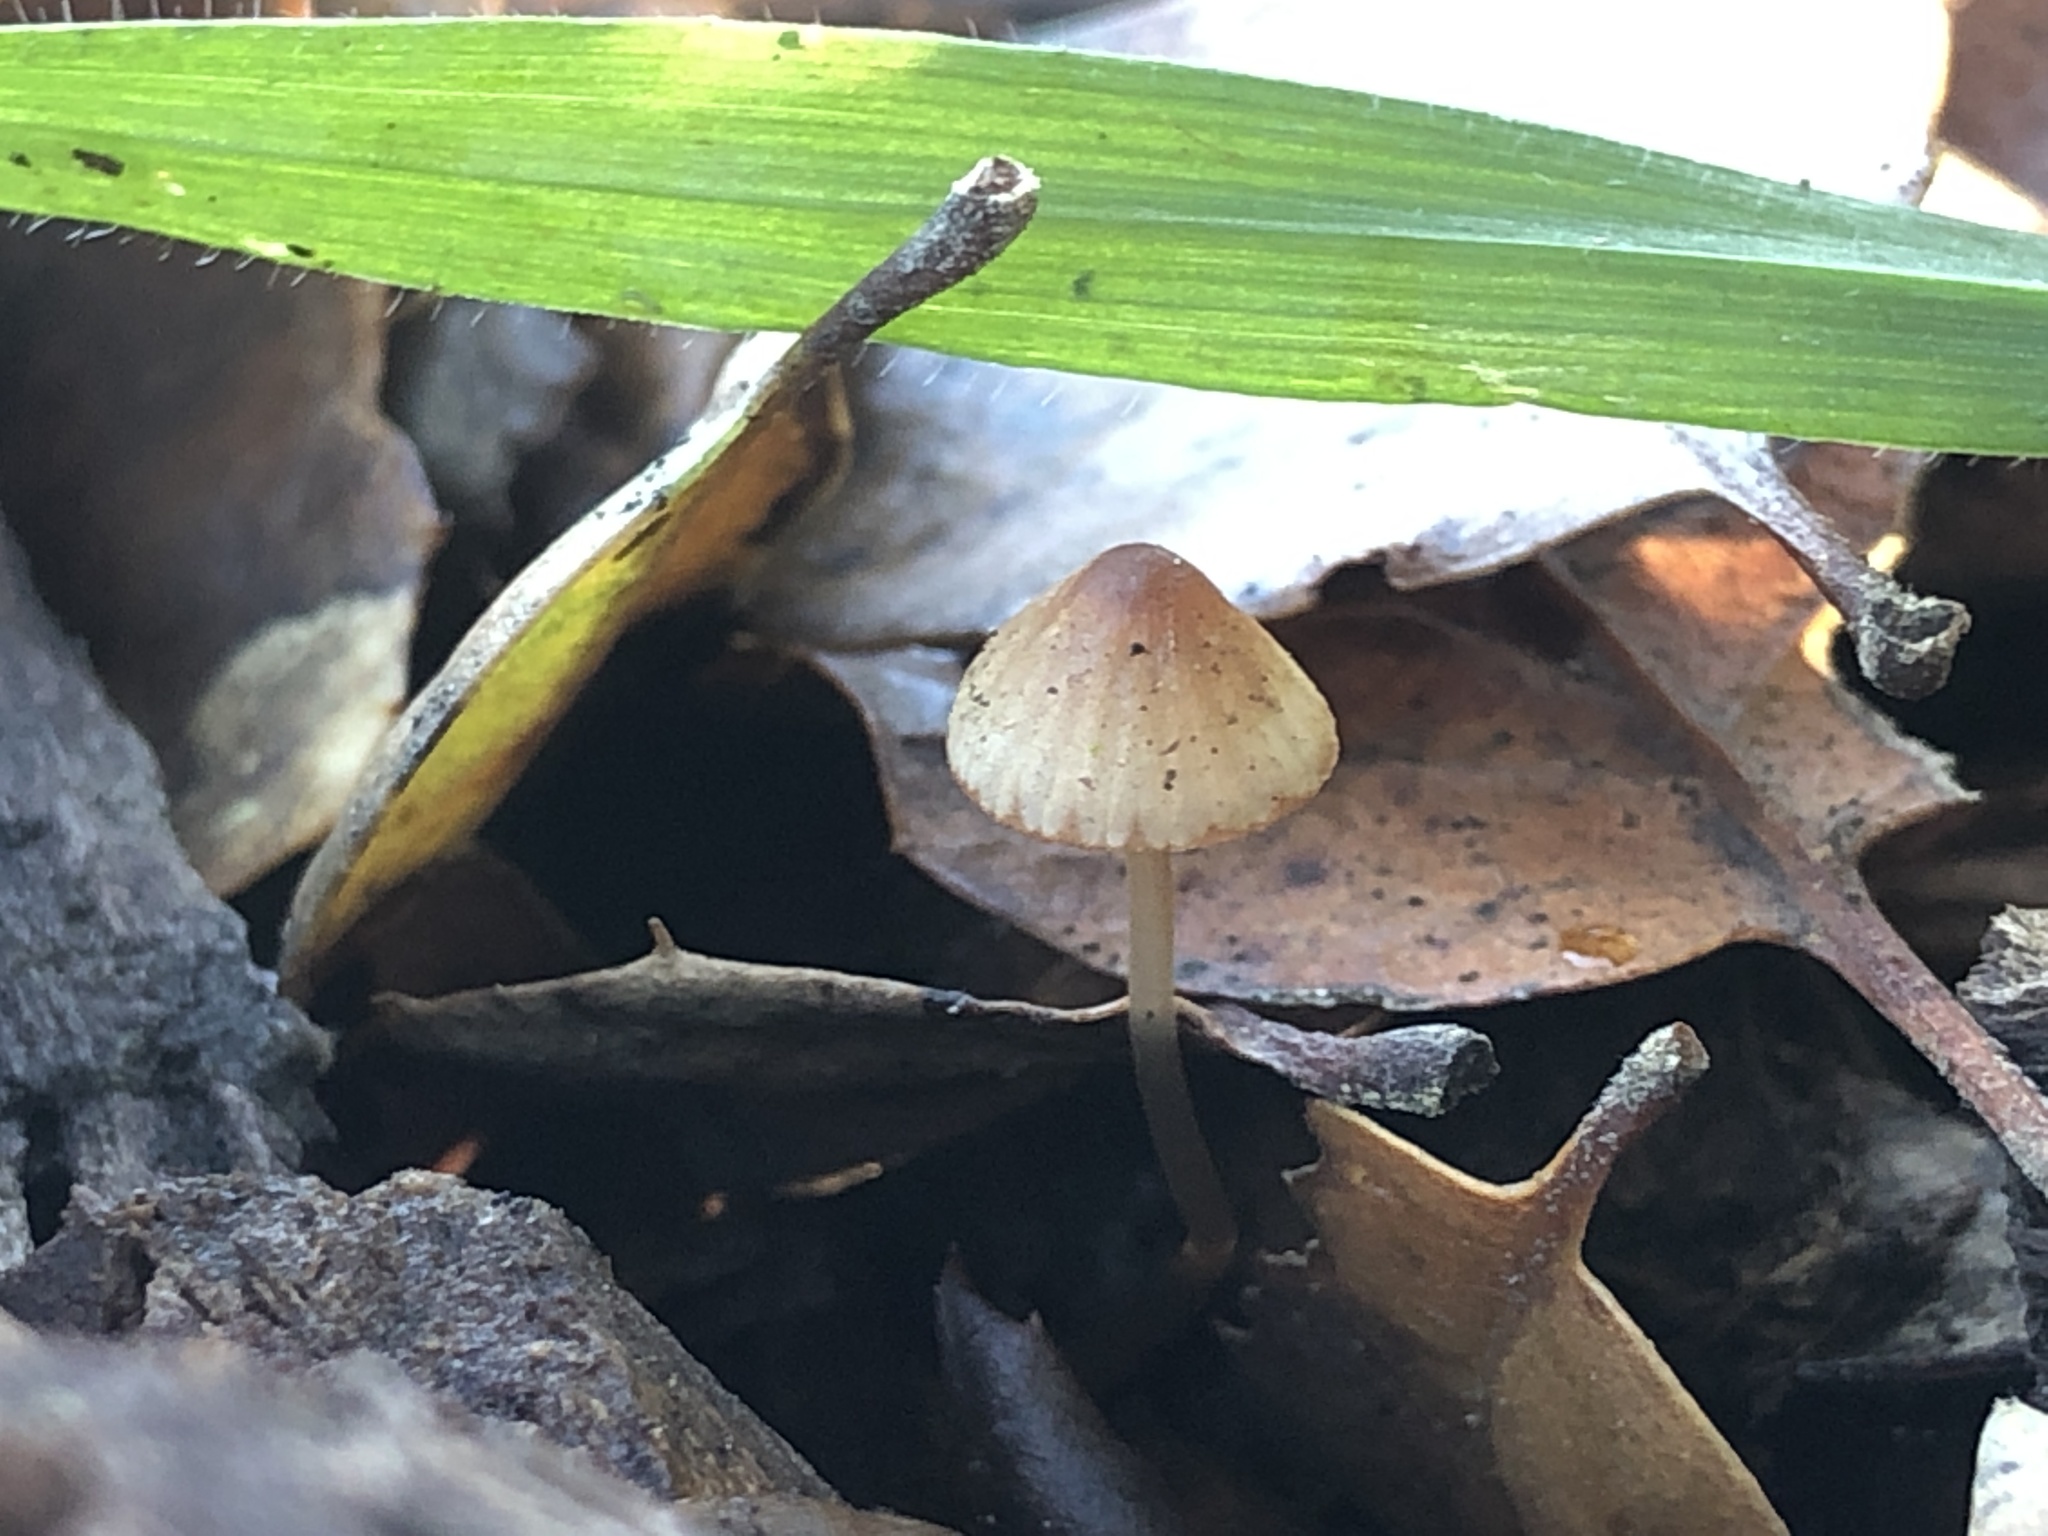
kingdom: Fungi
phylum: Basidiomycota
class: Agaricomycetes
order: Agaricales
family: Mycenaceae
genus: Mycena
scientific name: Mycena
